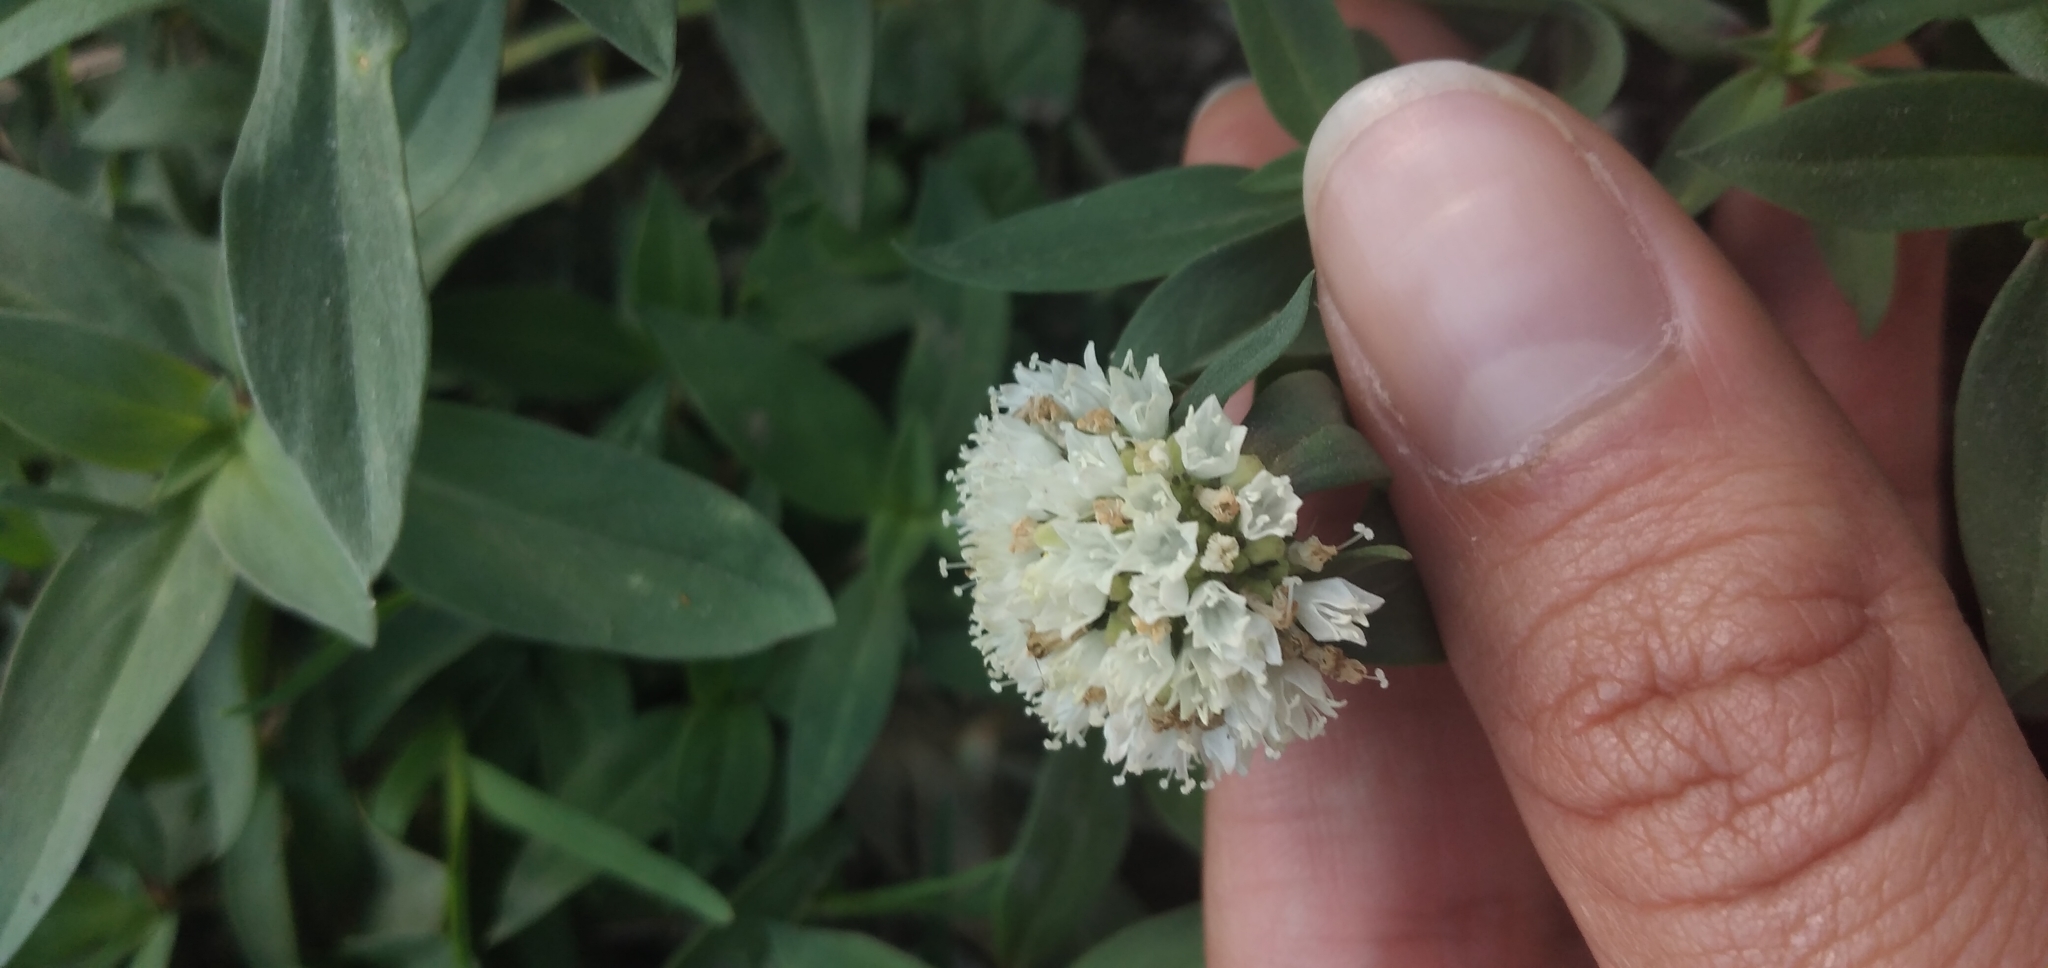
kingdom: Plantae
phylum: Tracheophyta
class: Magnoliopsida
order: Gentianales
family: Rubiaceae
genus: Spermacoce
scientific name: Spermacoce verticillata
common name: Shrubby false buttonweed
